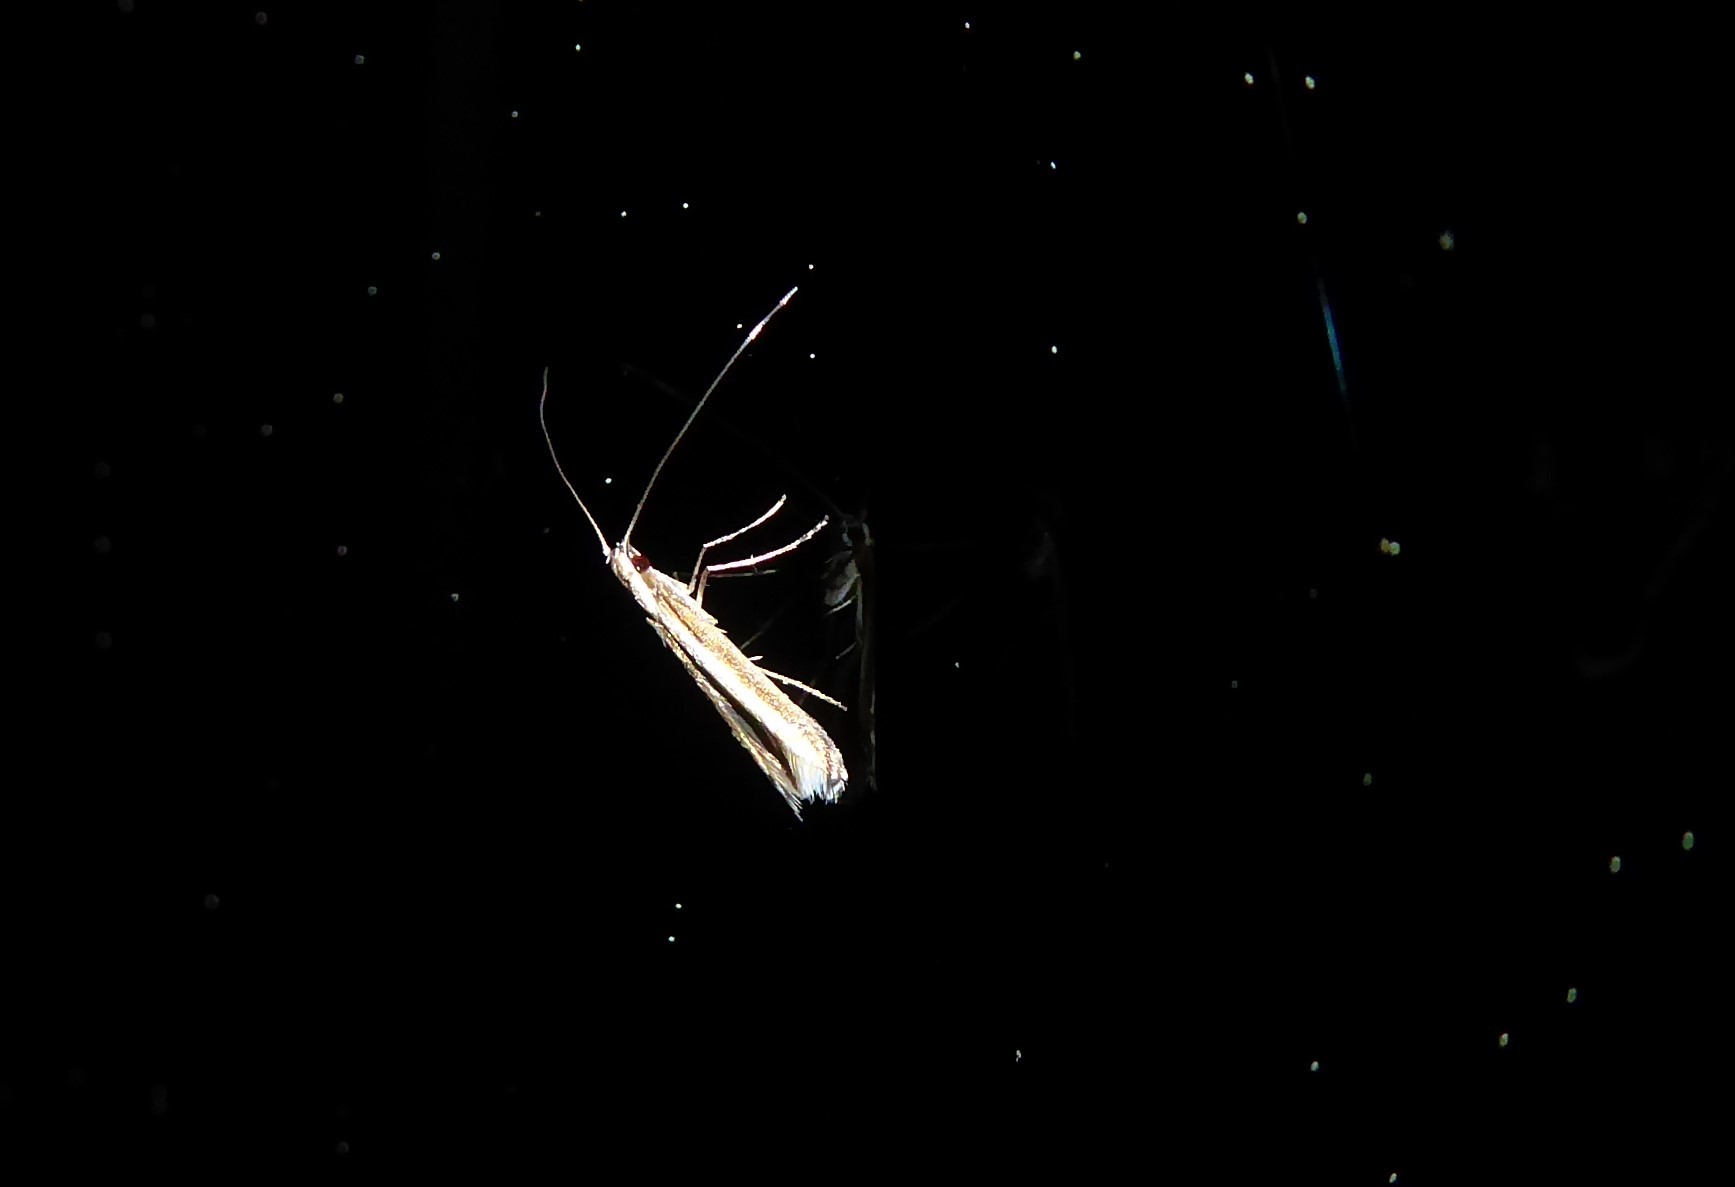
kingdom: Animalia
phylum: Arthropoda
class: Insecta
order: Lepidoptera
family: Gracillariidae
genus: Acrocercops
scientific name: Acrocercops laciniella
